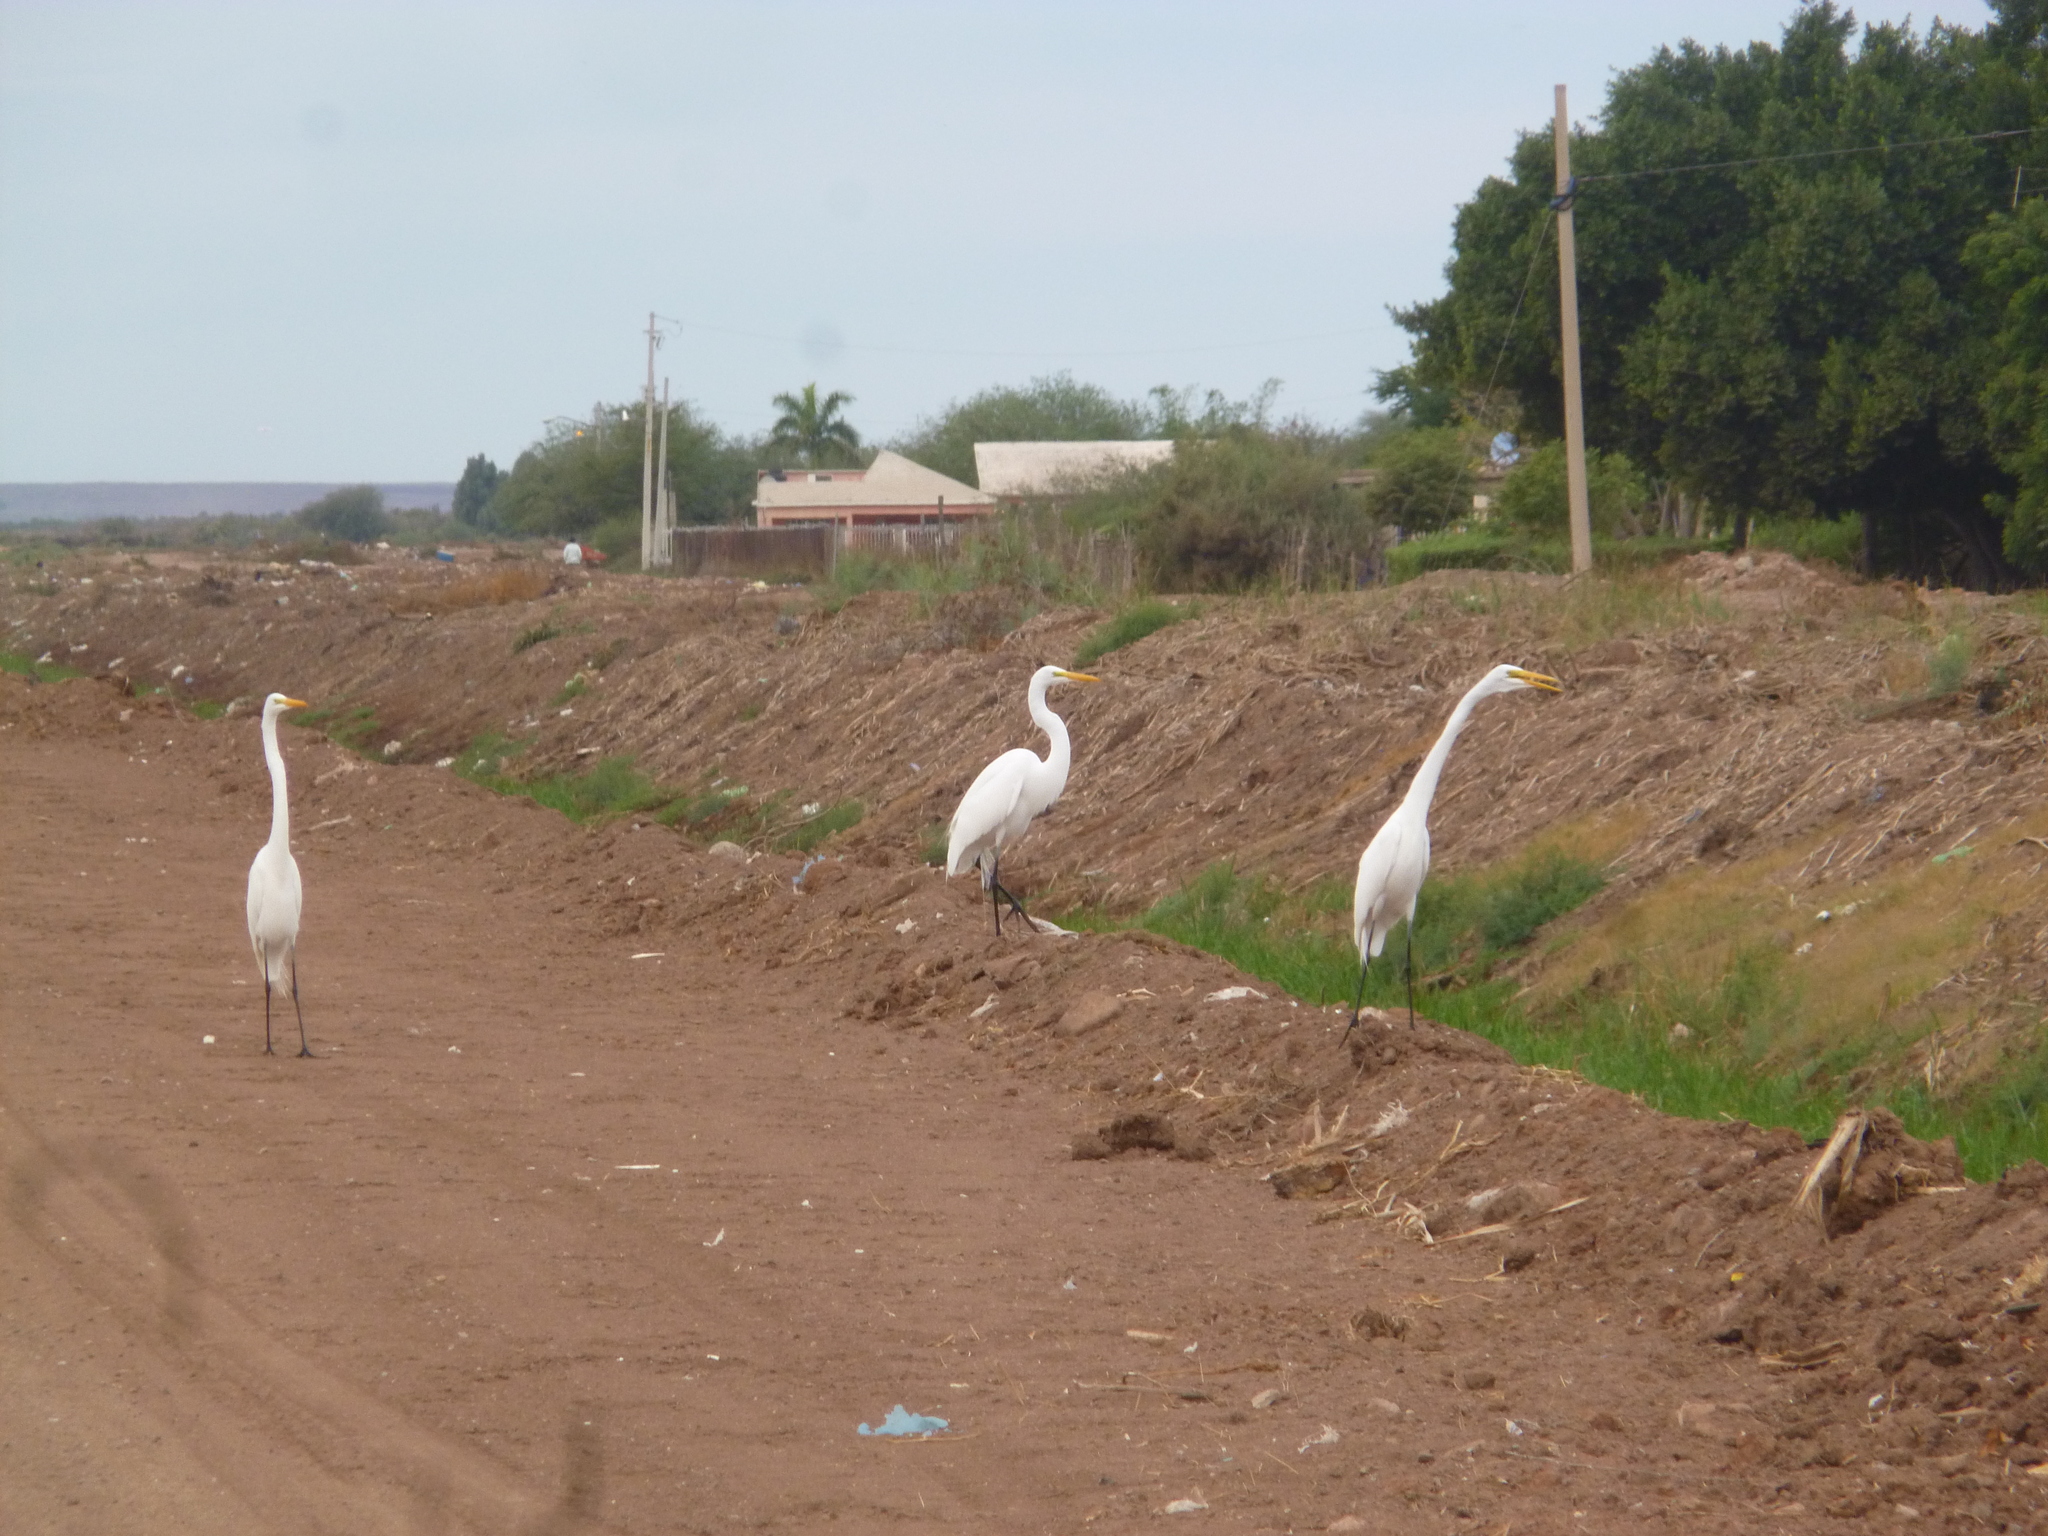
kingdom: Animalia
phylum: Chordata
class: Aves
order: Pelecaniformes
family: Ardeidae
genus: Ardea
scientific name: Ardea alba
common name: Great egret
